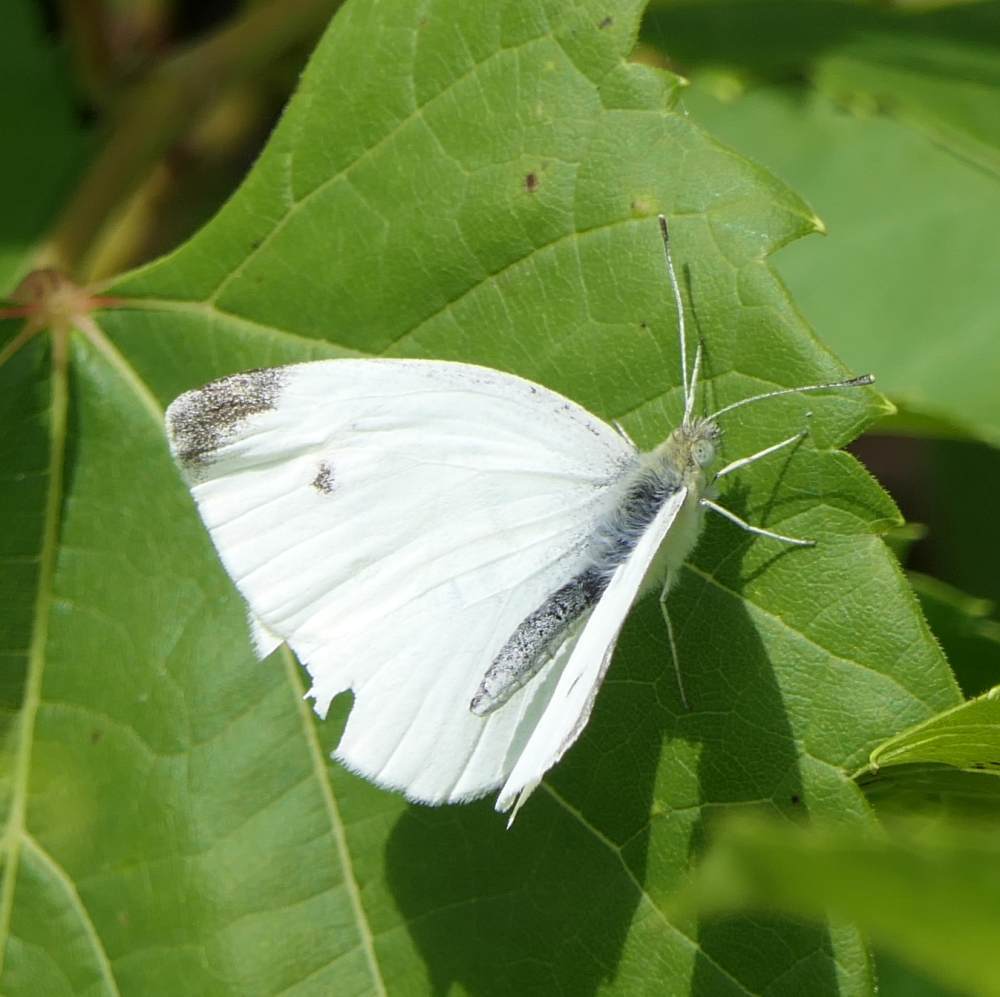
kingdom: Animalia
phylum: Arthropoda
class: Insecta
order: Lepidoptera
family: Pieridae
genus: Pieris
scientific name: Pieris rapae
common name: Small white
